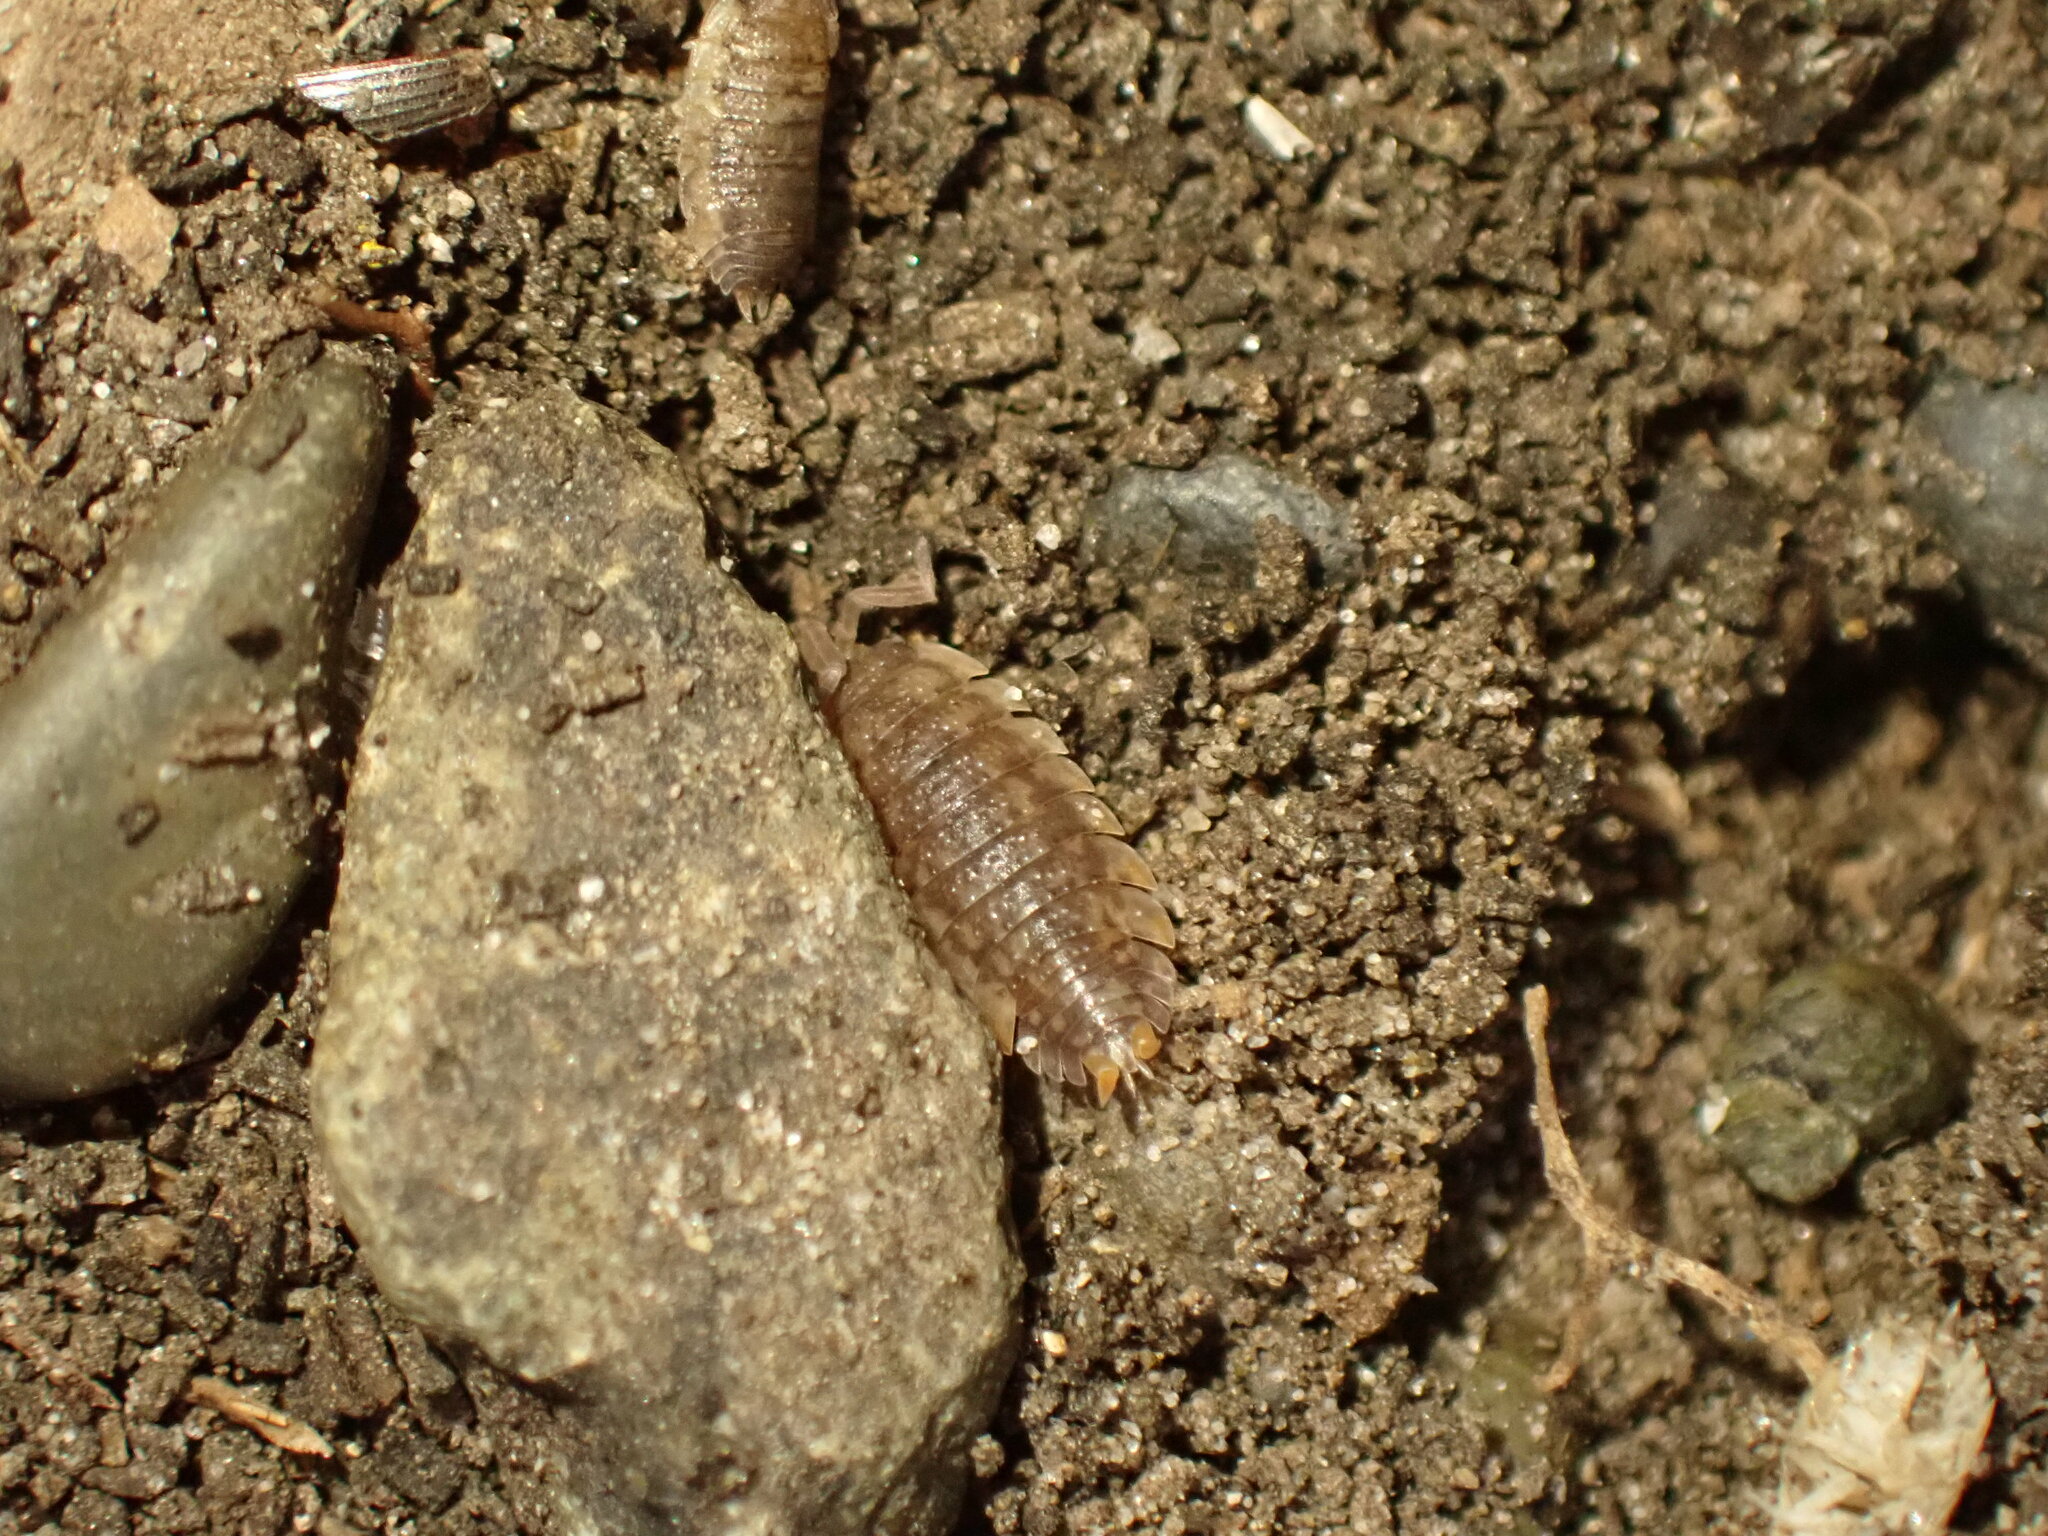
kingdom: Animalia
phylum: Arthropoda
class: Malacostraca
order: Isopoda
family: Porcellionidae
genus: Porcellio
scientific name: Porcellio scaber
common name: Common rough woodlouse
